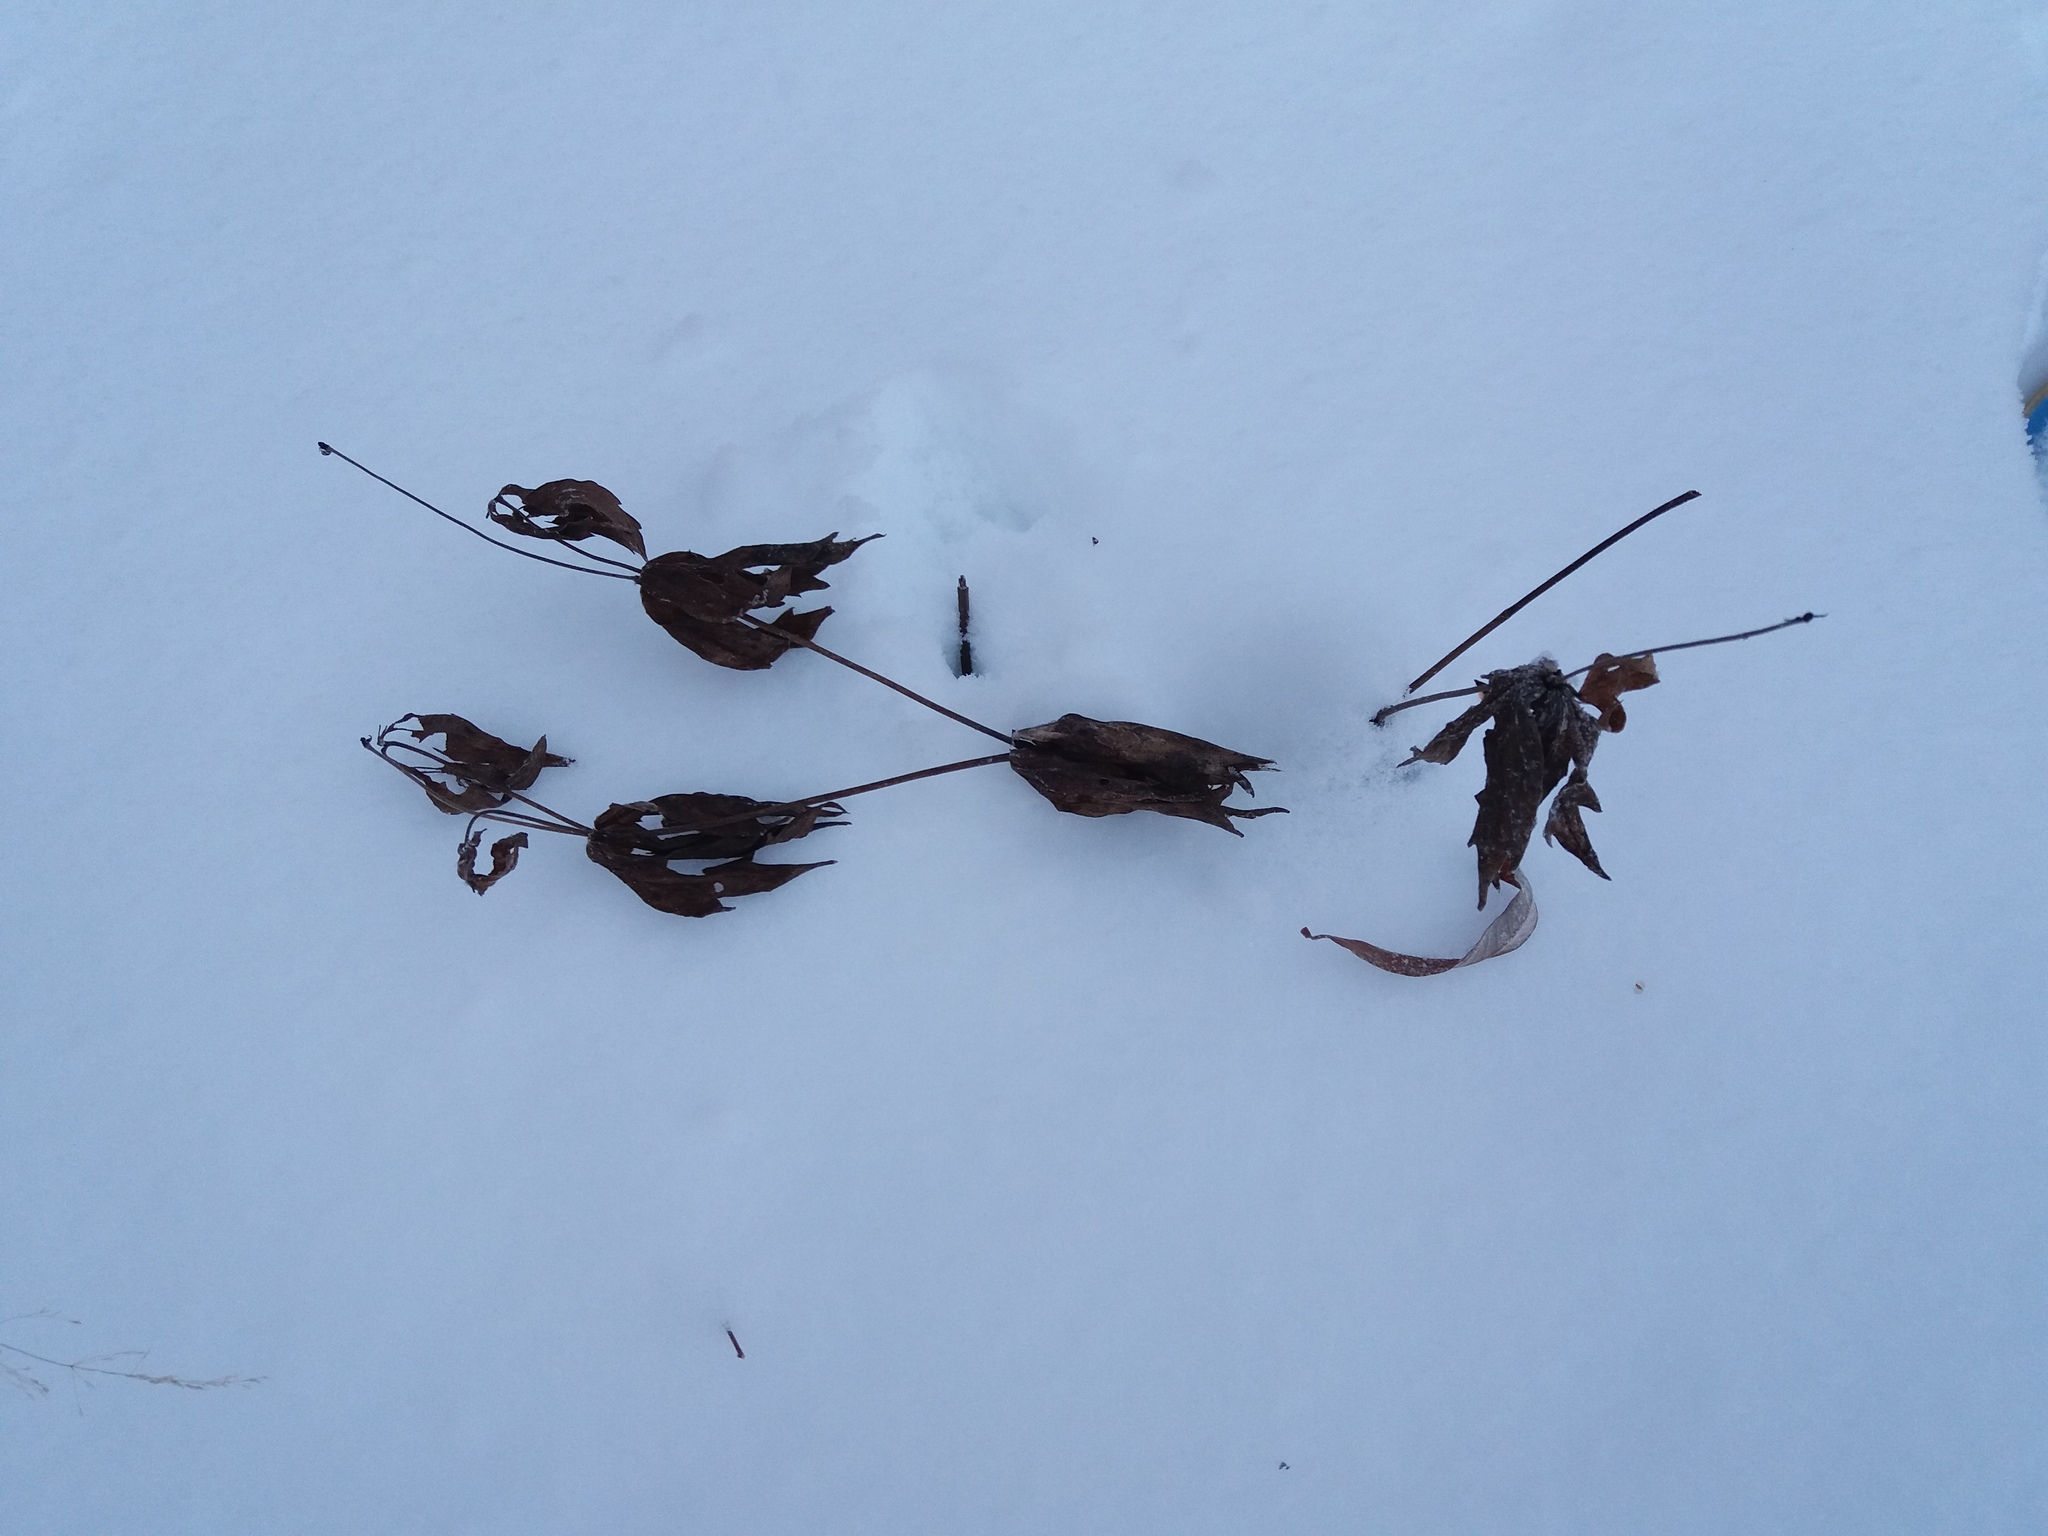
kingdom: Plantae
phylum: Tracheophyta
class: Magnoliopsida
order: Ranunculales
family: Ranunculaceae
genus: Anemonastrum
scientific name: Anemonastrum dichotomum
